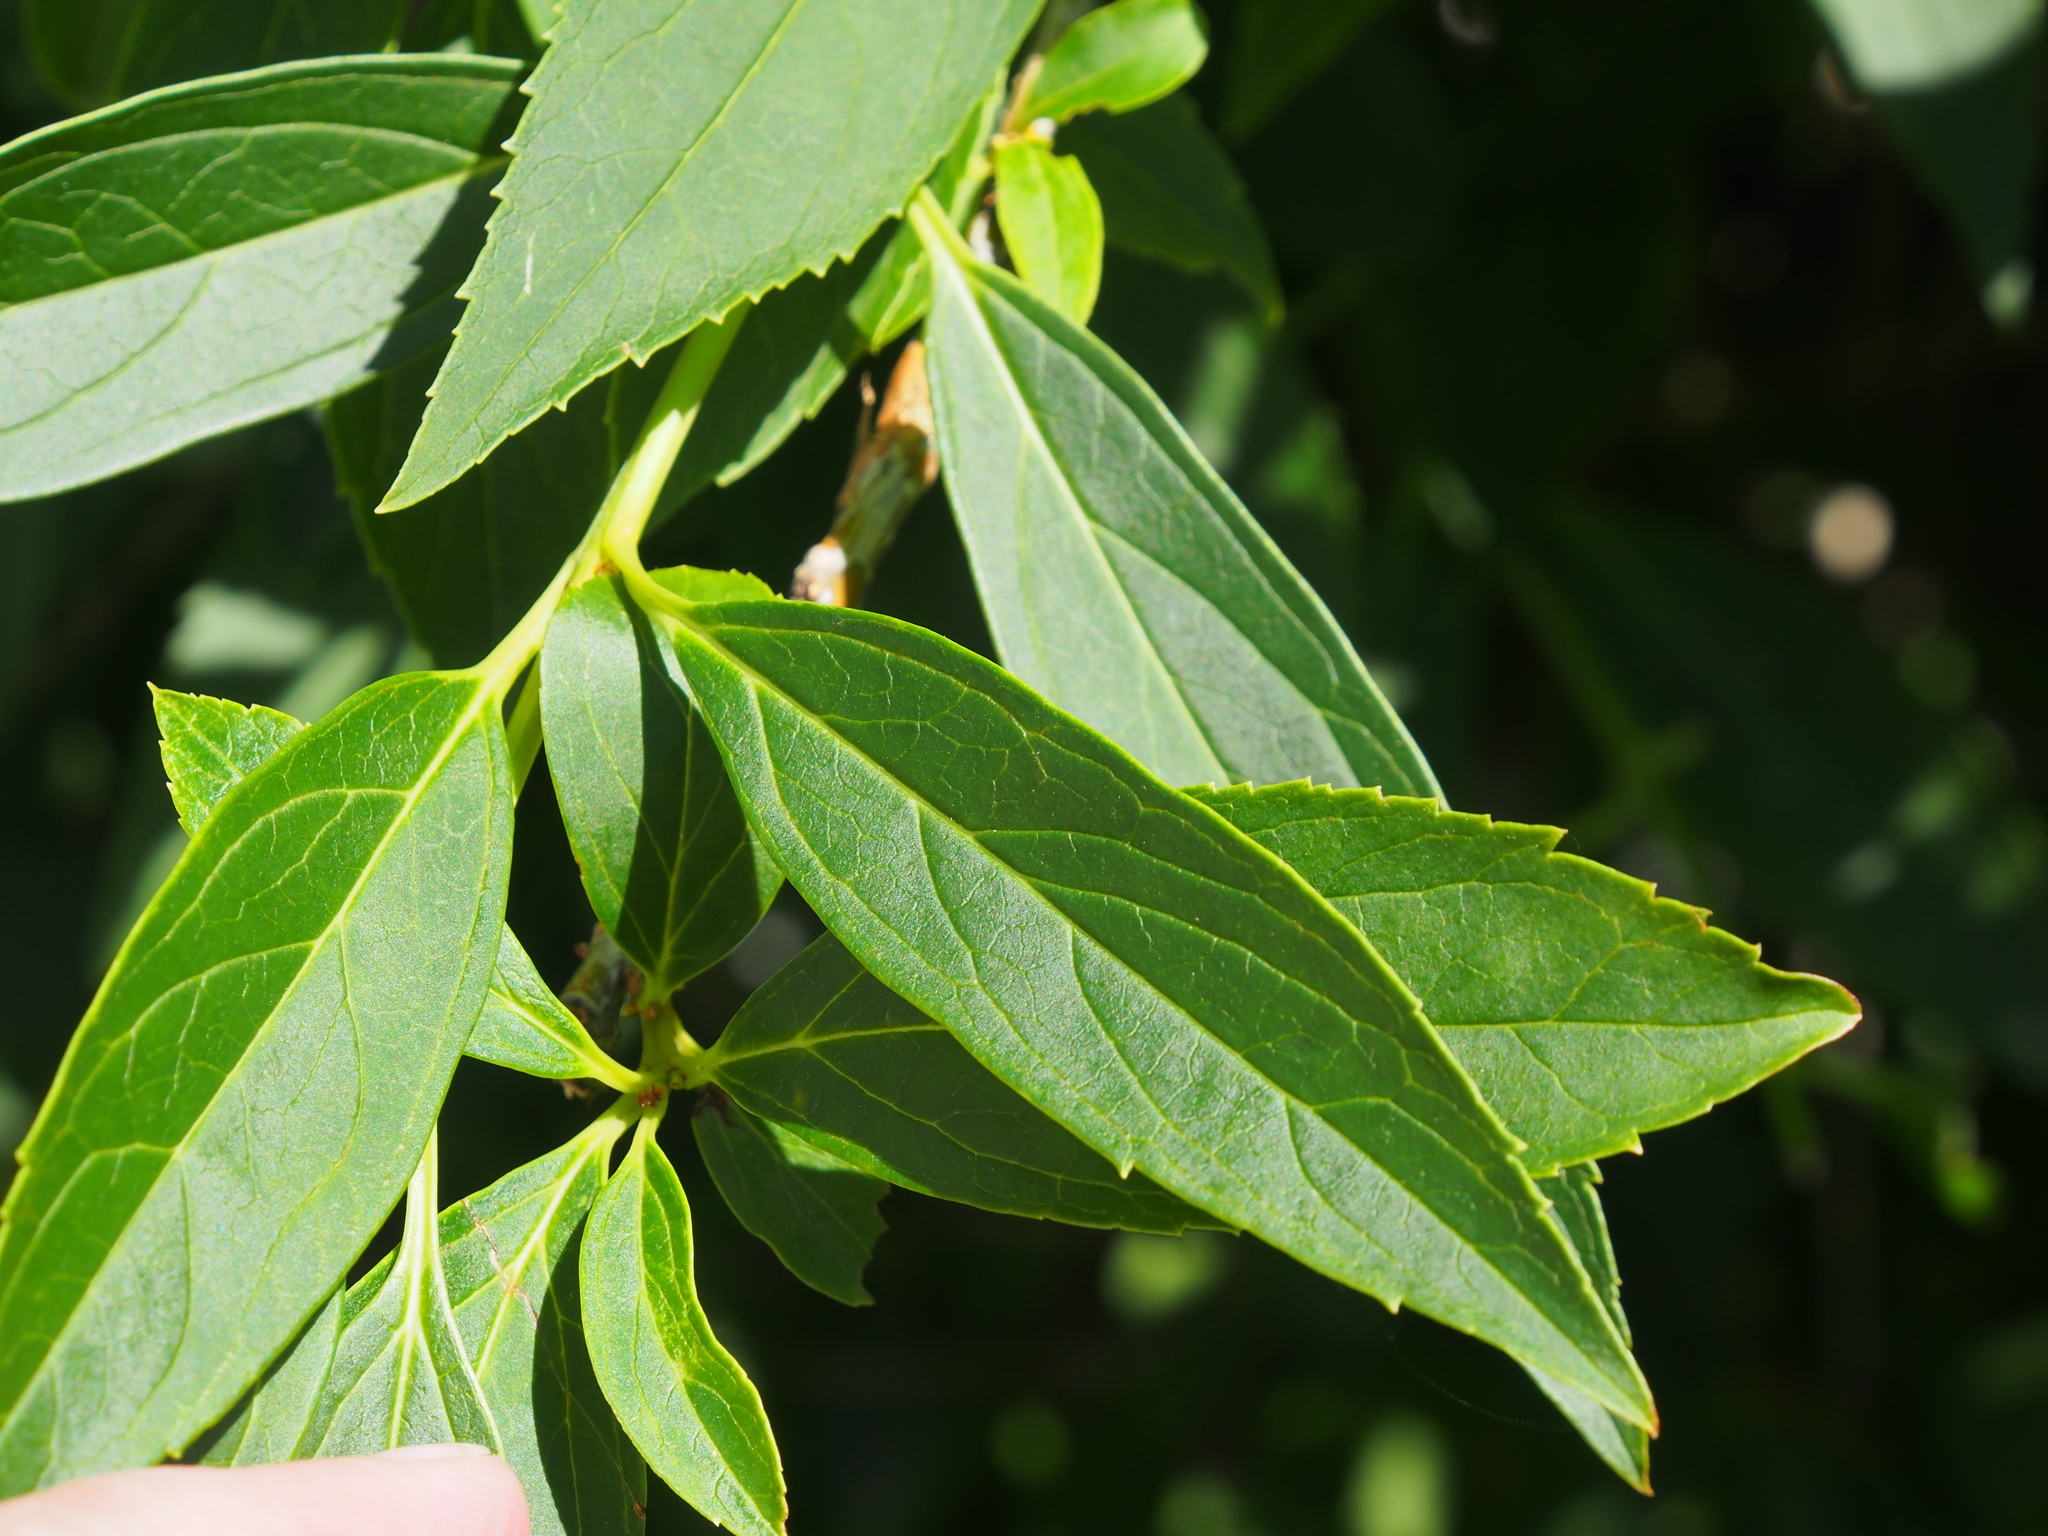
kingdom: Plantae
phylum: Tracheophyta
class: Magnoliopsida
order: Lamiales
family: Oleaceae
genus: Forsythia
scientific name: Forsythia intermedia
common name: Forsythia
